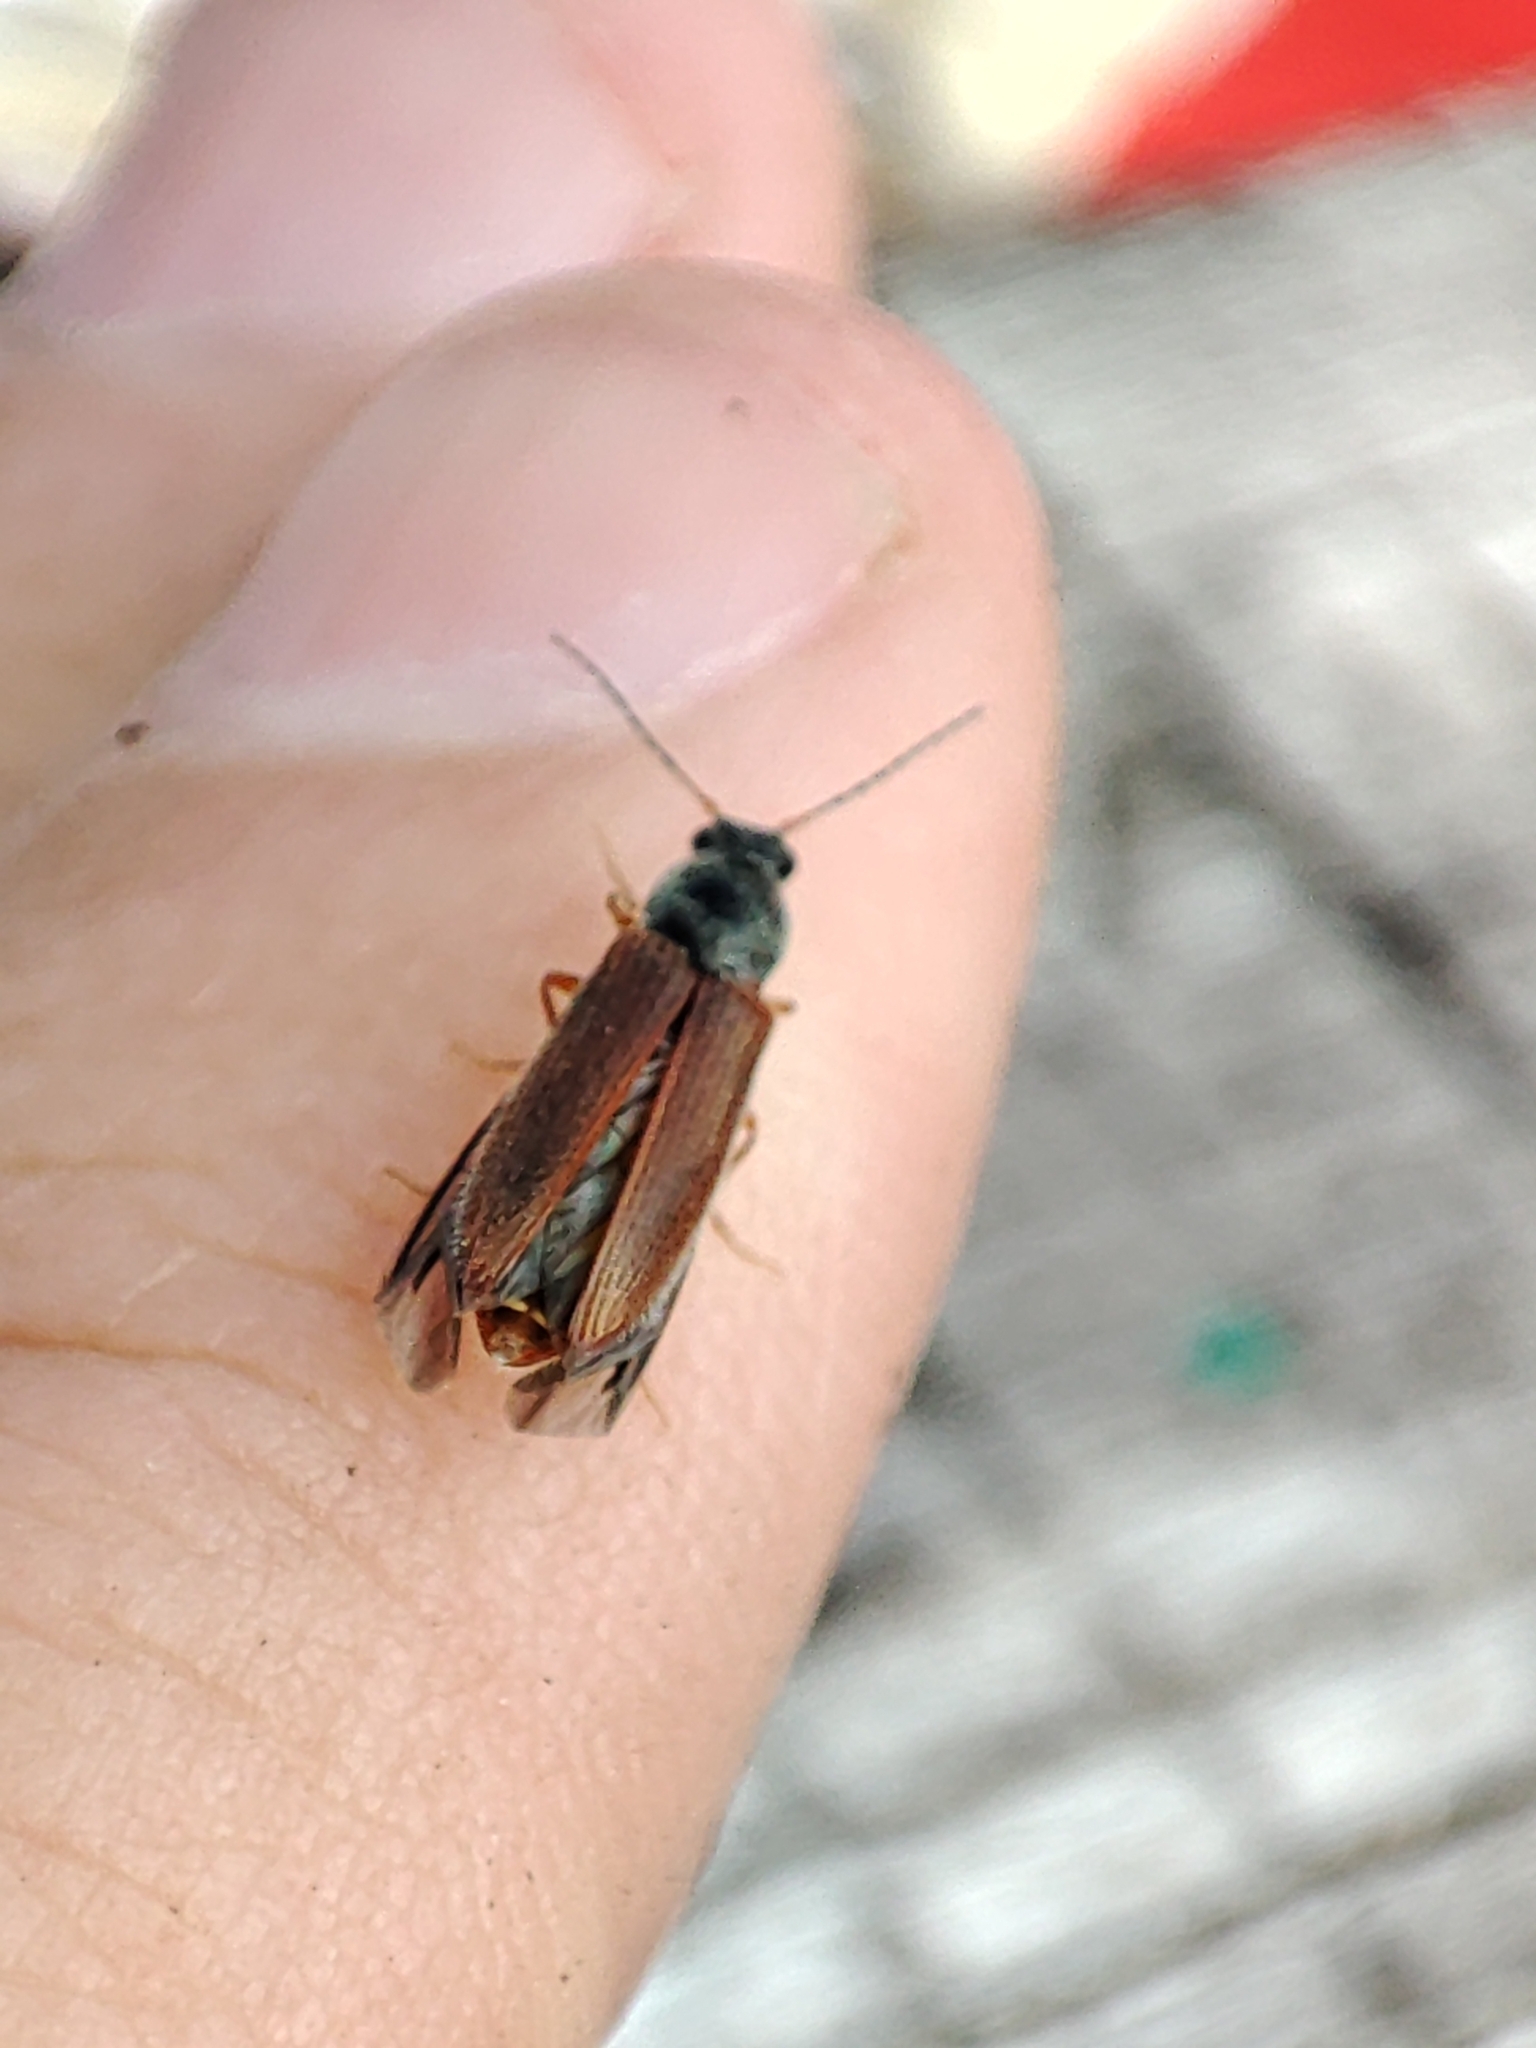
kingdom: Animalia
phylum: Arthropoda
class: Insecta
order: Coleoptera
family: Elateridae
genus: Athous
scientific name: Athous subfuscus
